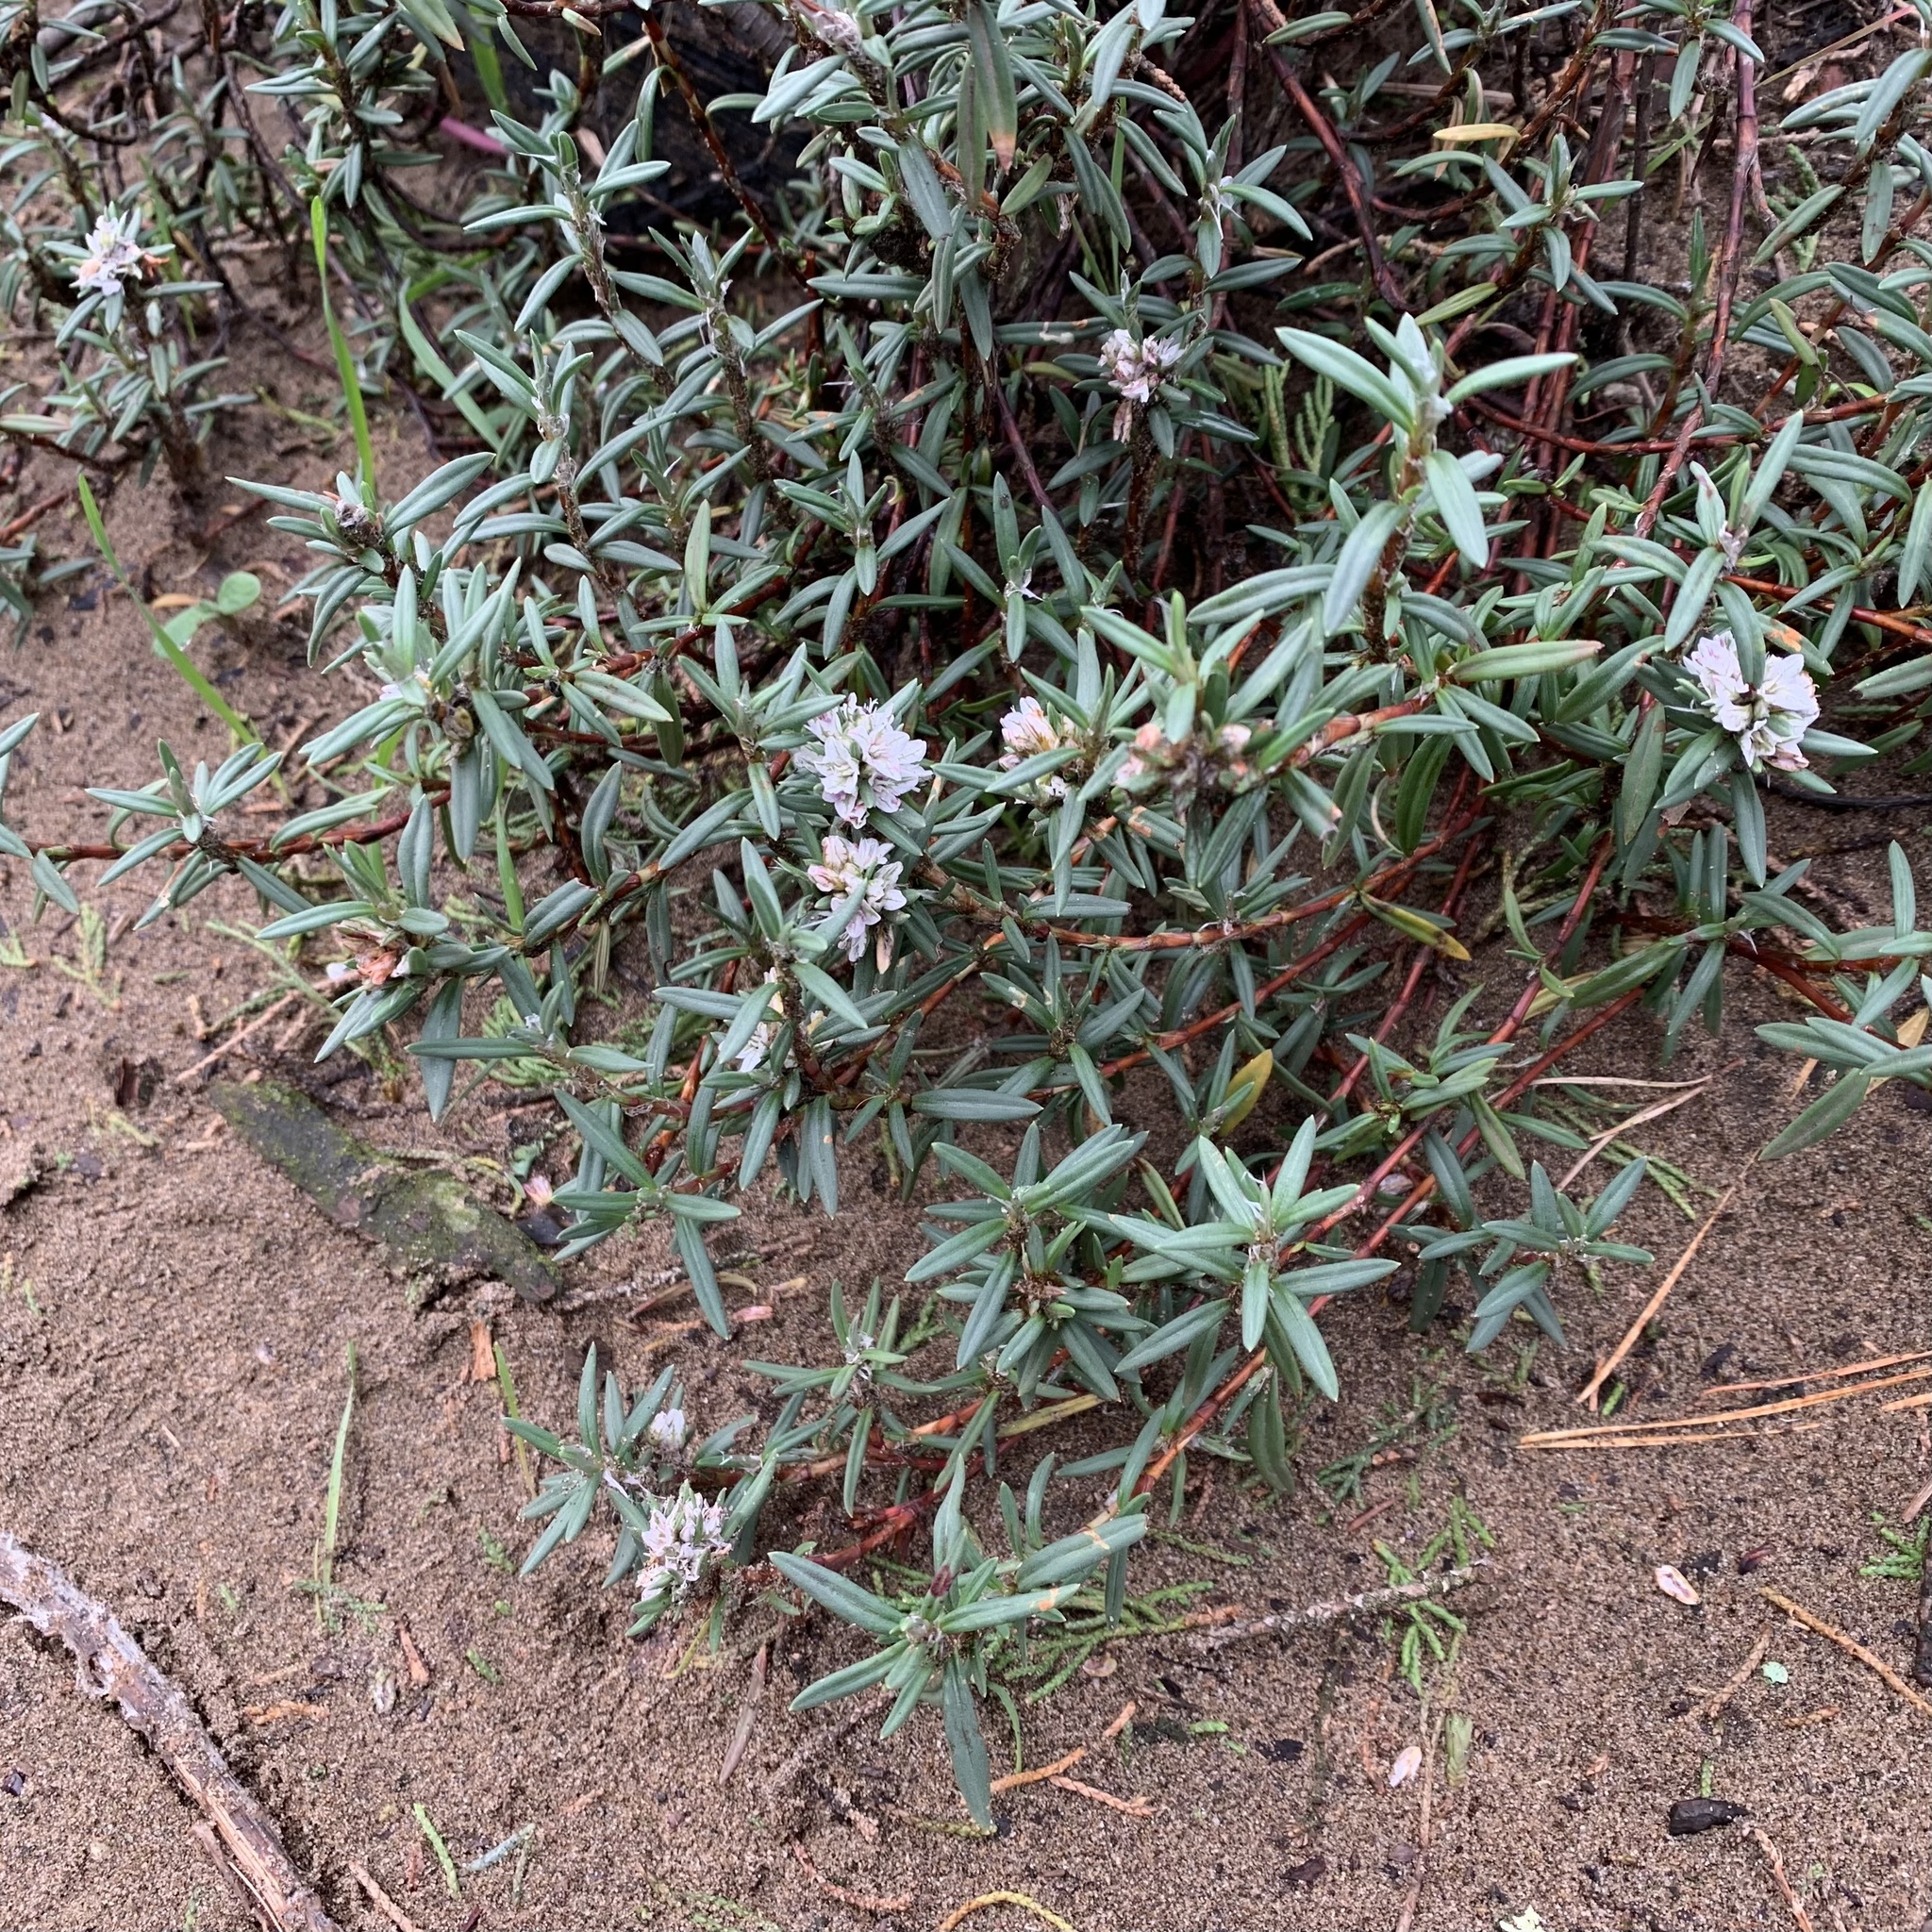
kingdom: Plantae
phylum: Tracheophyta
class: Magnoliopsida
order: Caryophyllales
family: Polygonaceae
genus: Polygonum
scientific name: Polygonum paronychia
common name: Dune knotweed
